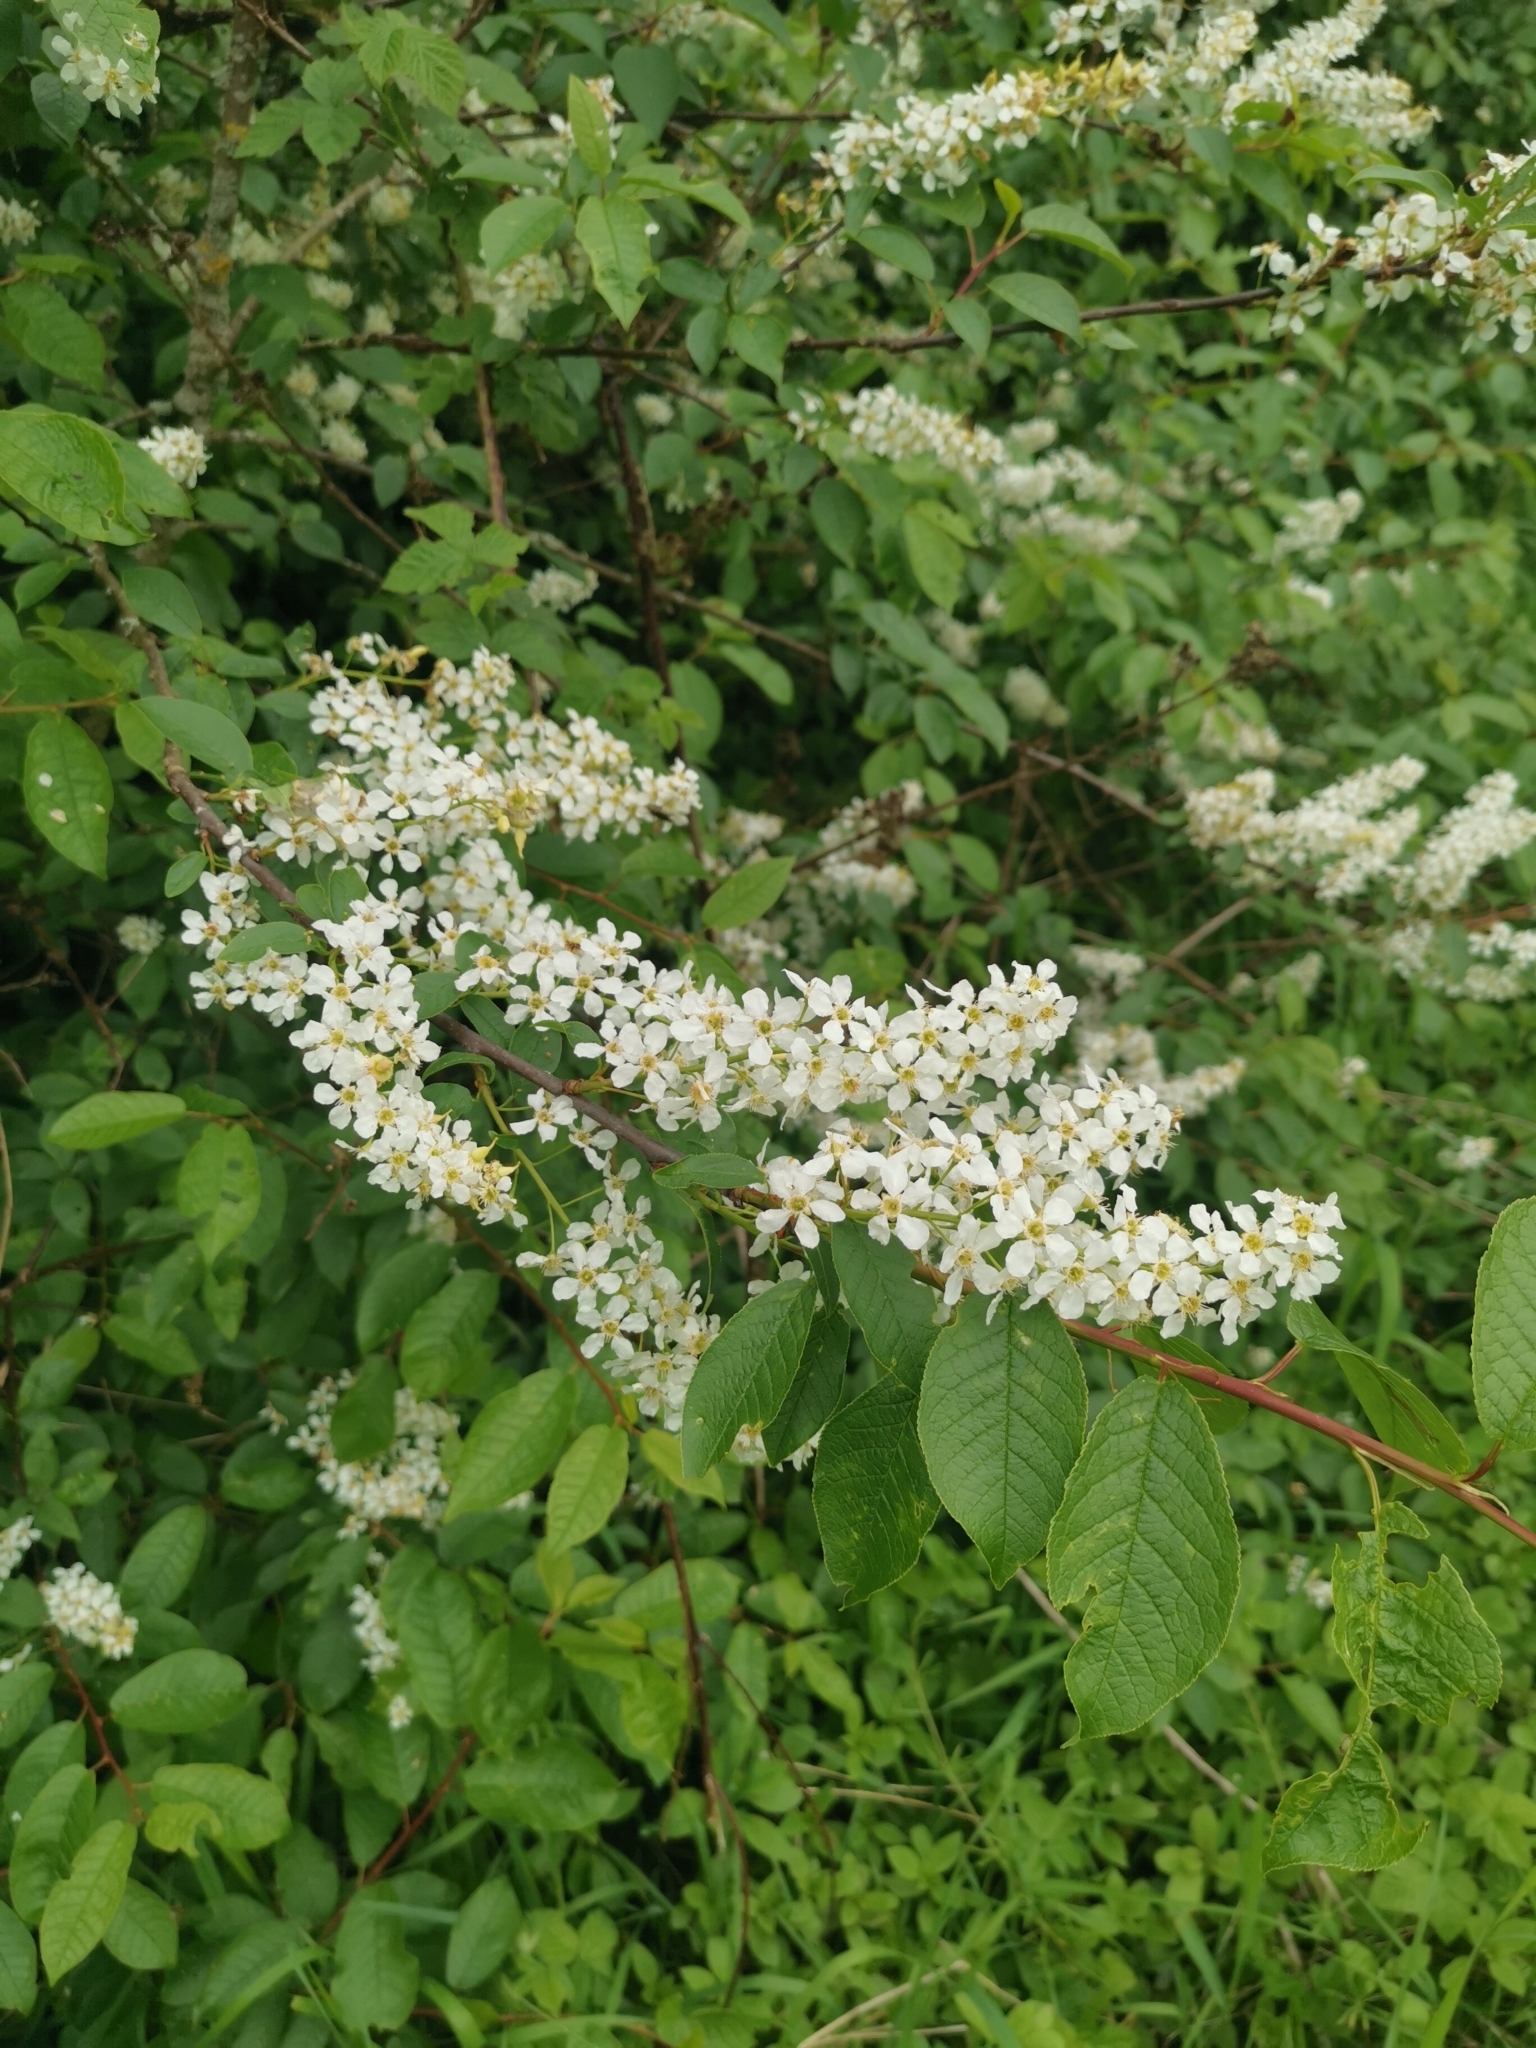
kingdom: Plantae
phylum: Tracheophyta
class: Magnoliopsida
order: Rosales
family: Rosaceae
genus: Prunus
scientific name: Prunus padus
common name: Bird cherry
